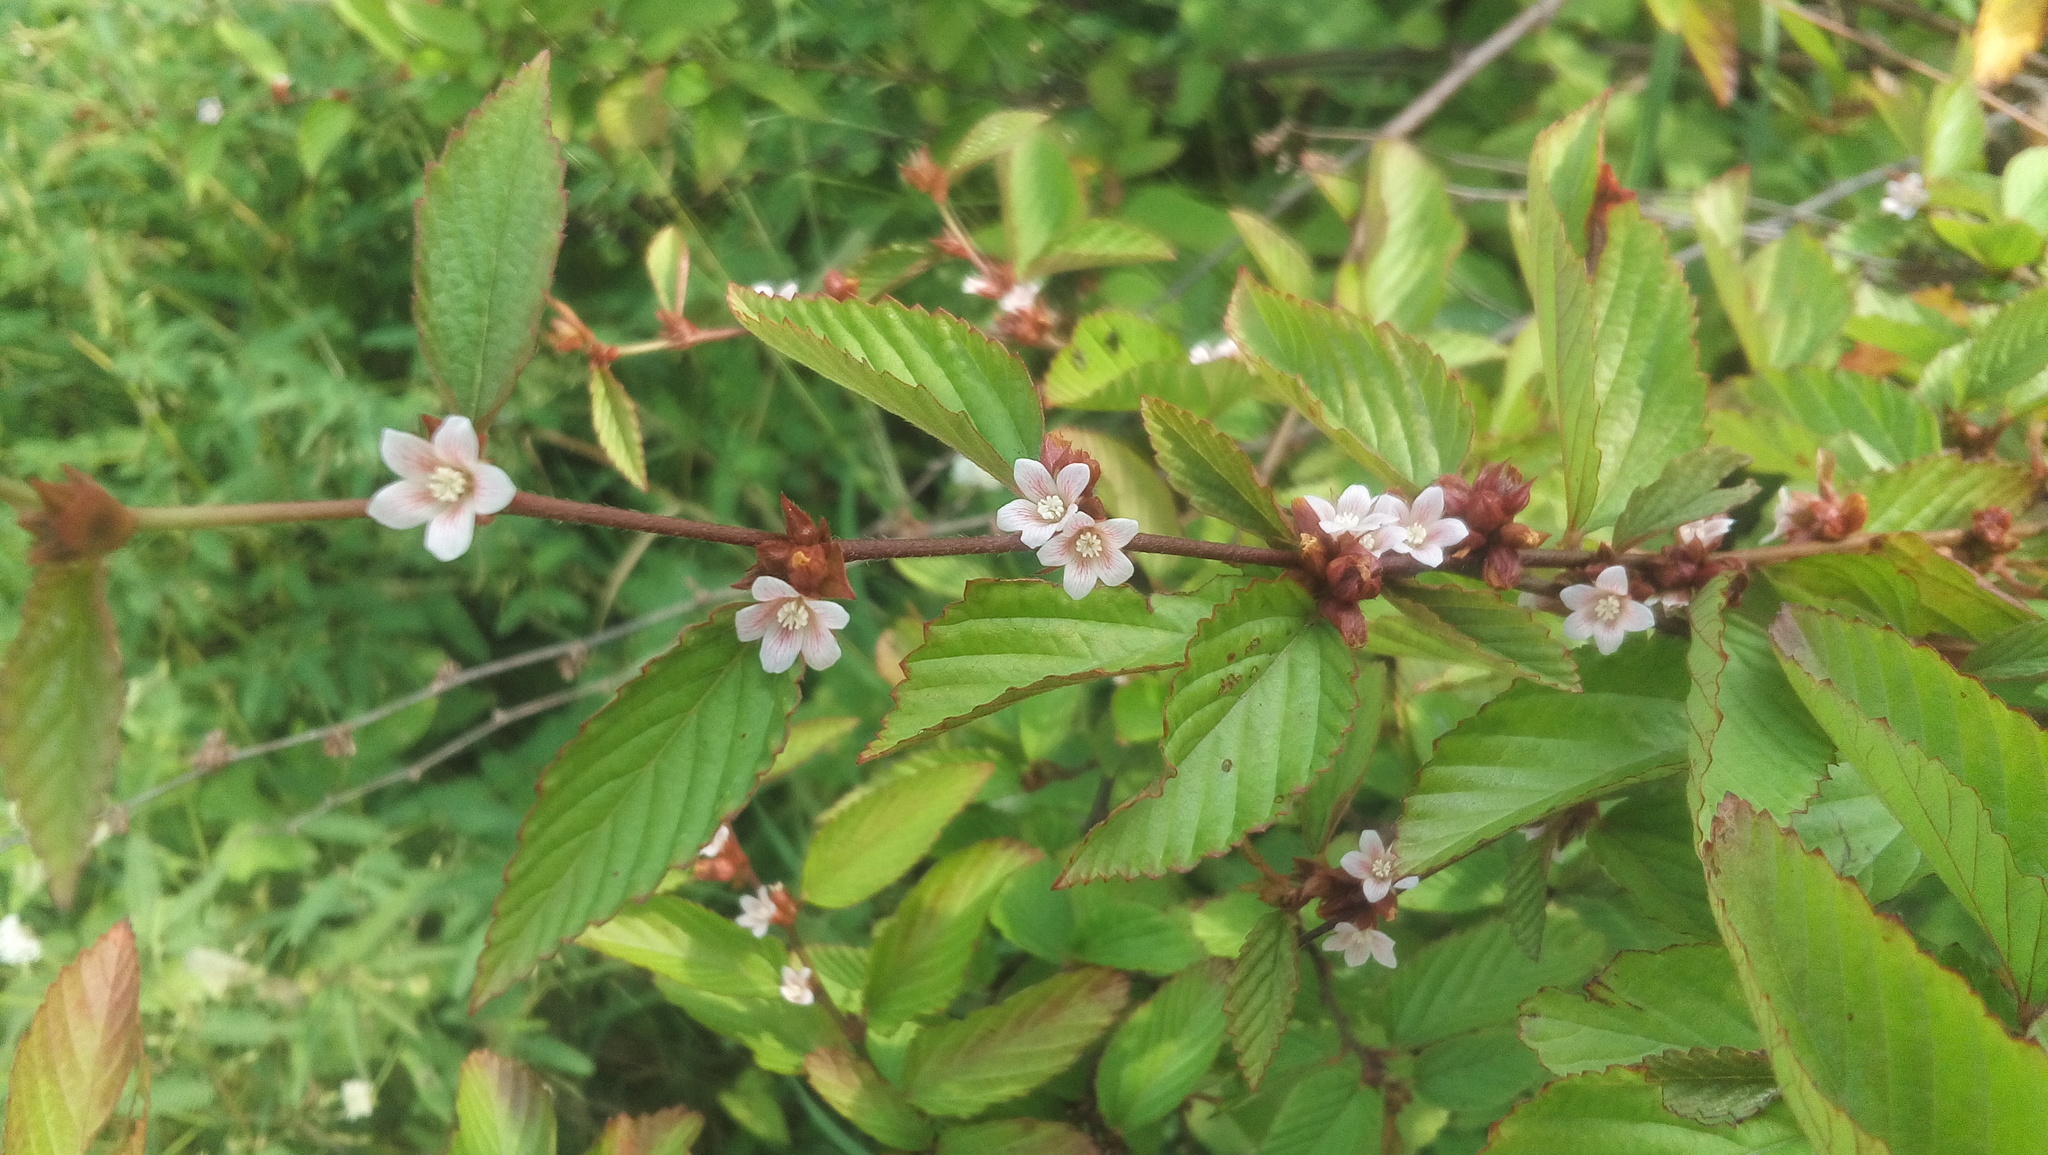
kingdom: Plantae
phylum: Tracheophyta
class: Magnoliopsida
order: Malvales
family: Malvaceae
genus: Melochia
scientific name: Melochia nodiflora
